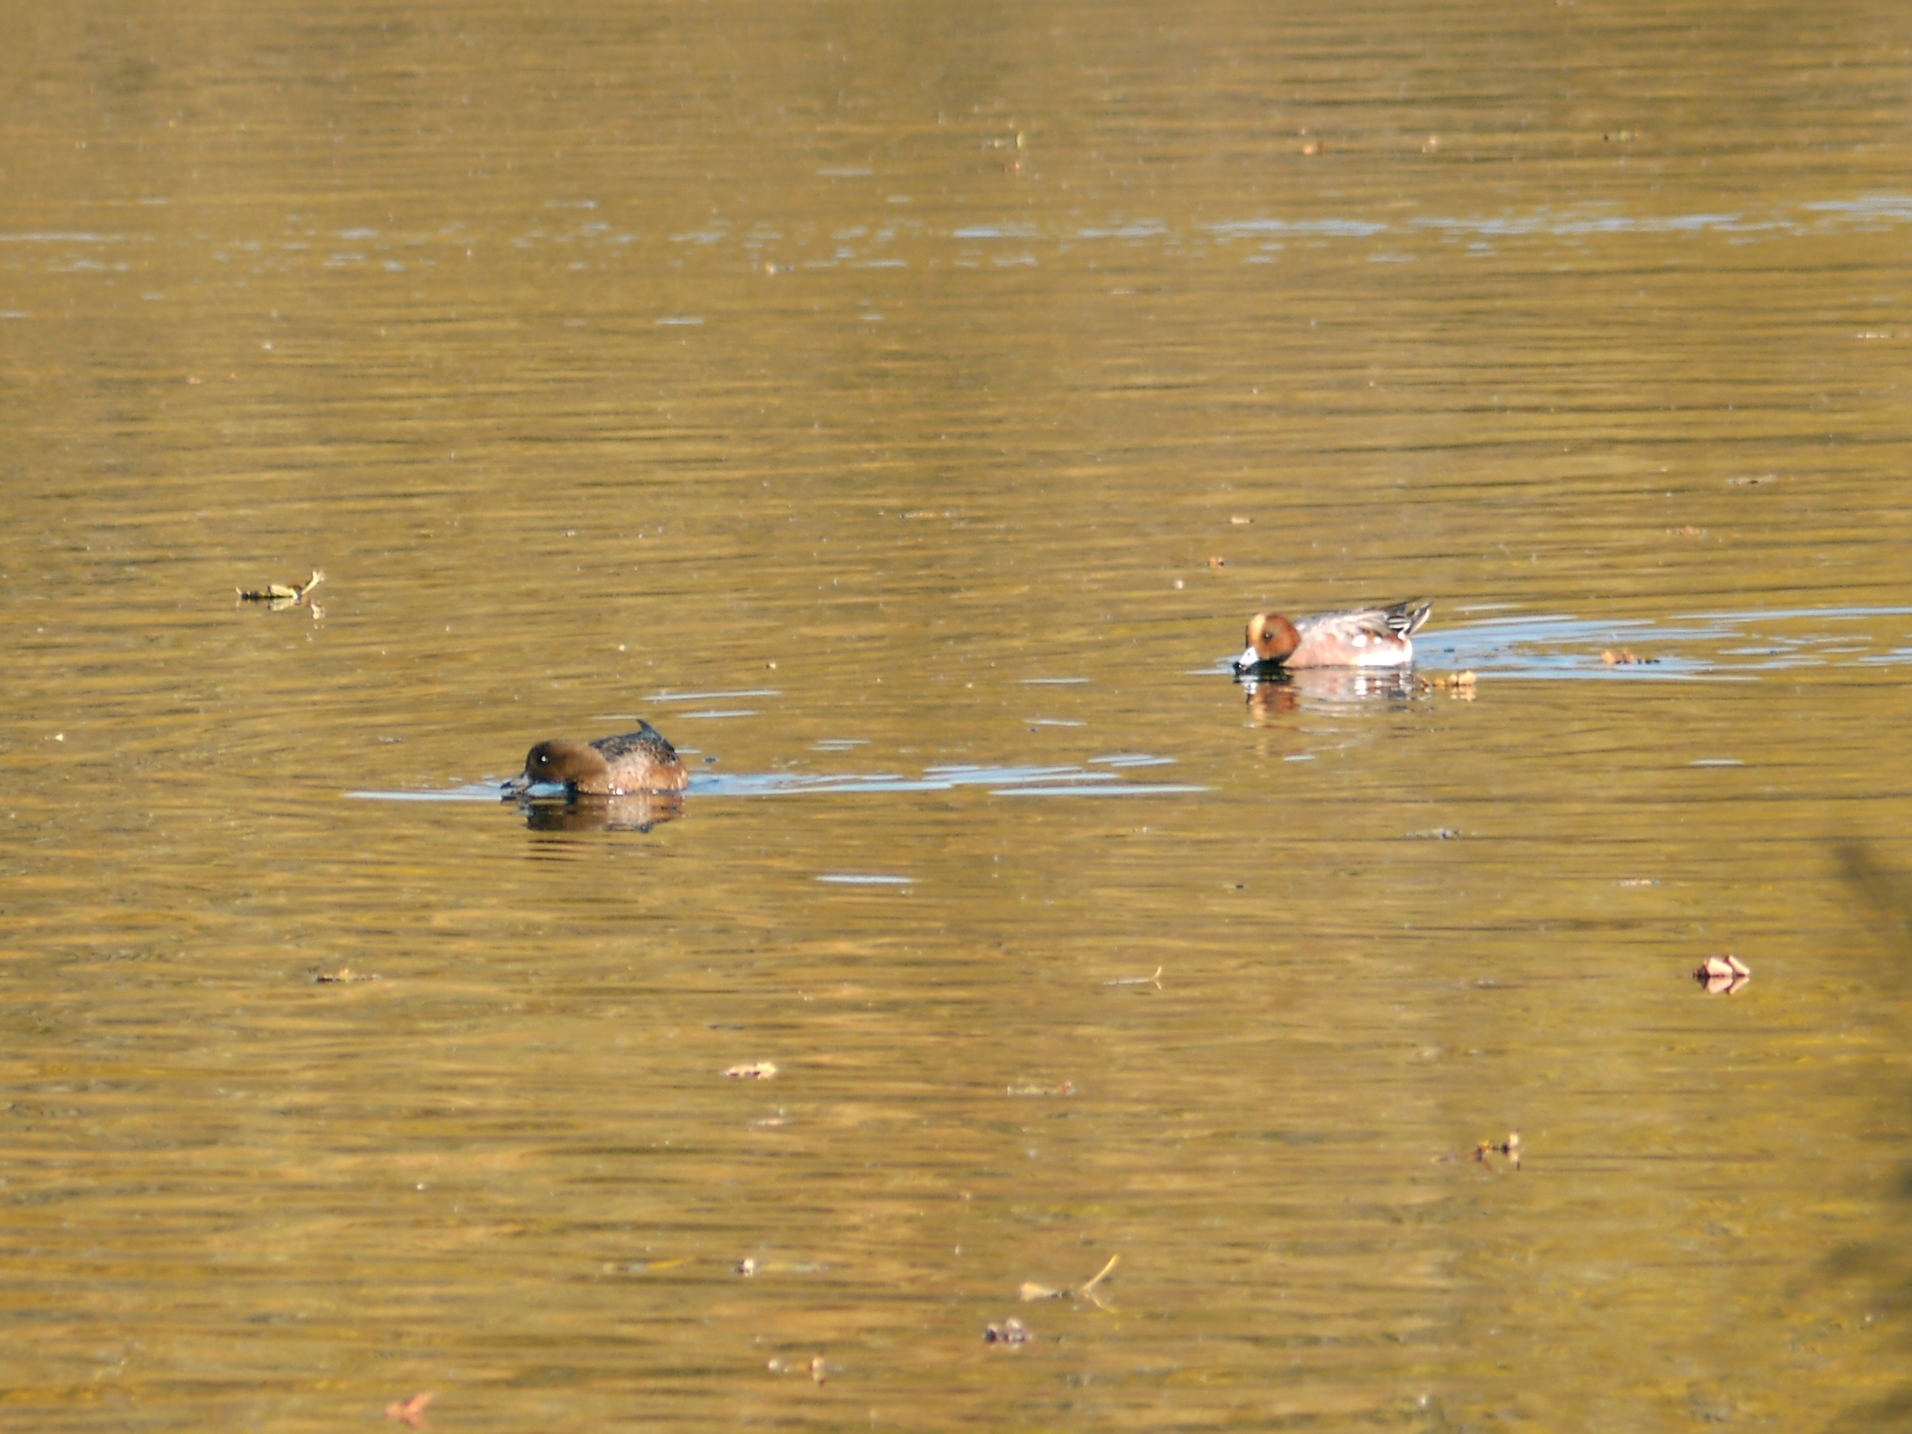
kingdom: Animalia
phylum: Chordata
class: Aves
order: Anseriformes
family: Anatidae
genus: Mareca
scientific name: Mareca penelope
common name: Eurasian wigeon
